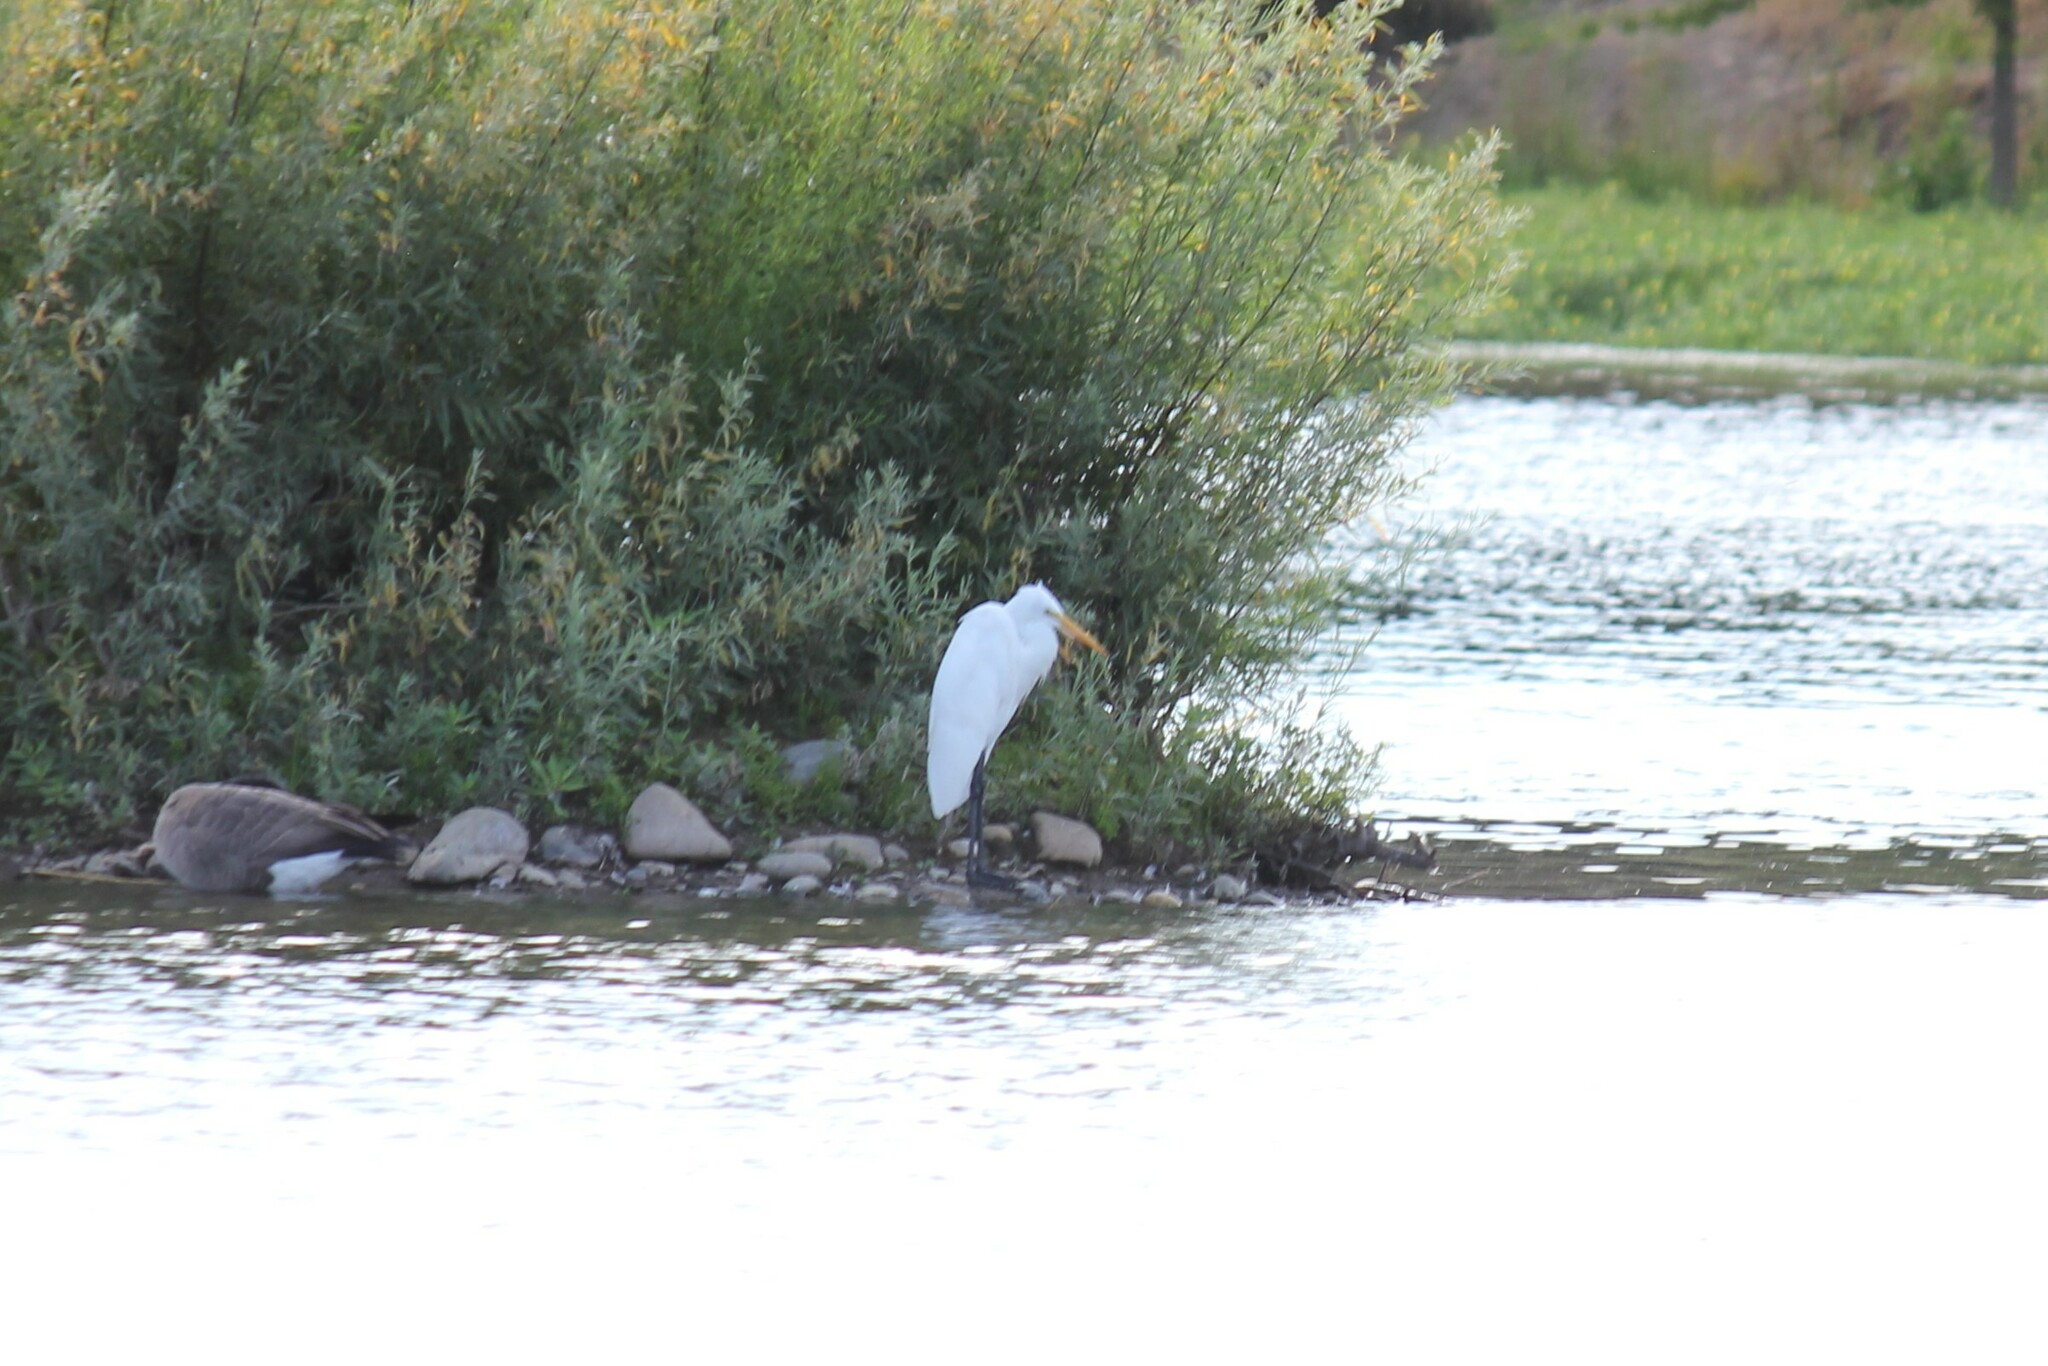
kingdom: Animalia
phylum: Chordata
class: Aves
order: Pelecaniformes
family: Ardeidae
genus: Ardea
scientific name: Ardea alba
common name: Great egret
